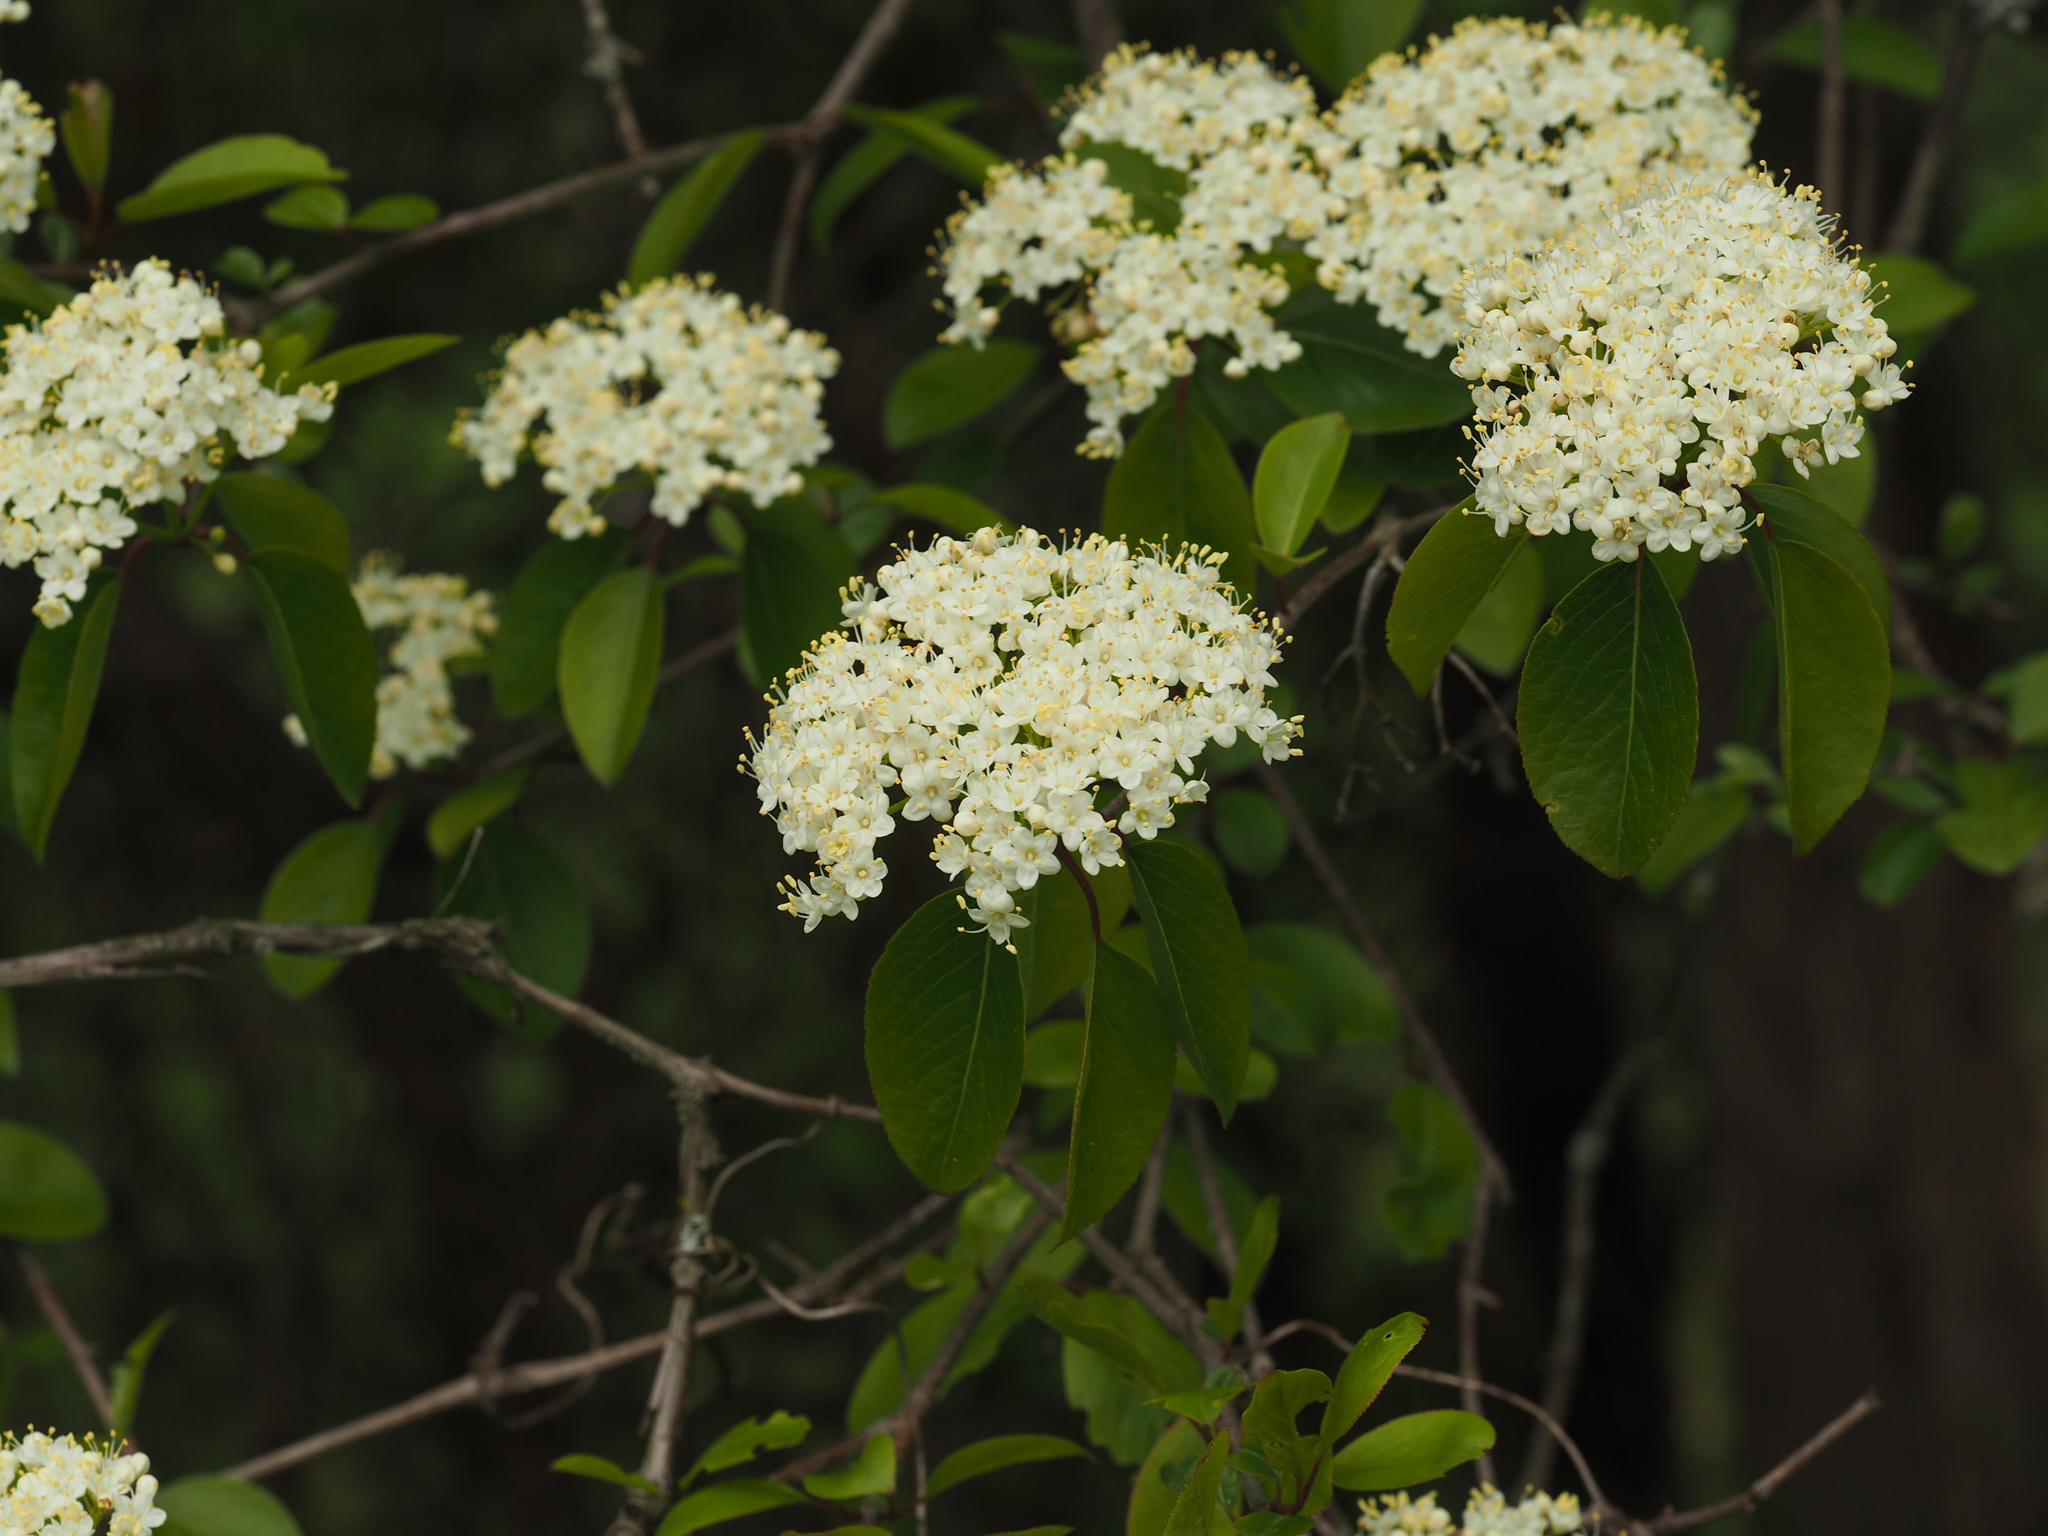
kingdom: Plantae
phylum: Tracheophyta
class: Magnoliopsida
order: Dipsacales
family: Viburnaceae
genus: Viburnum
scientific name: Viburnum prunifolium
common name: Black haw
